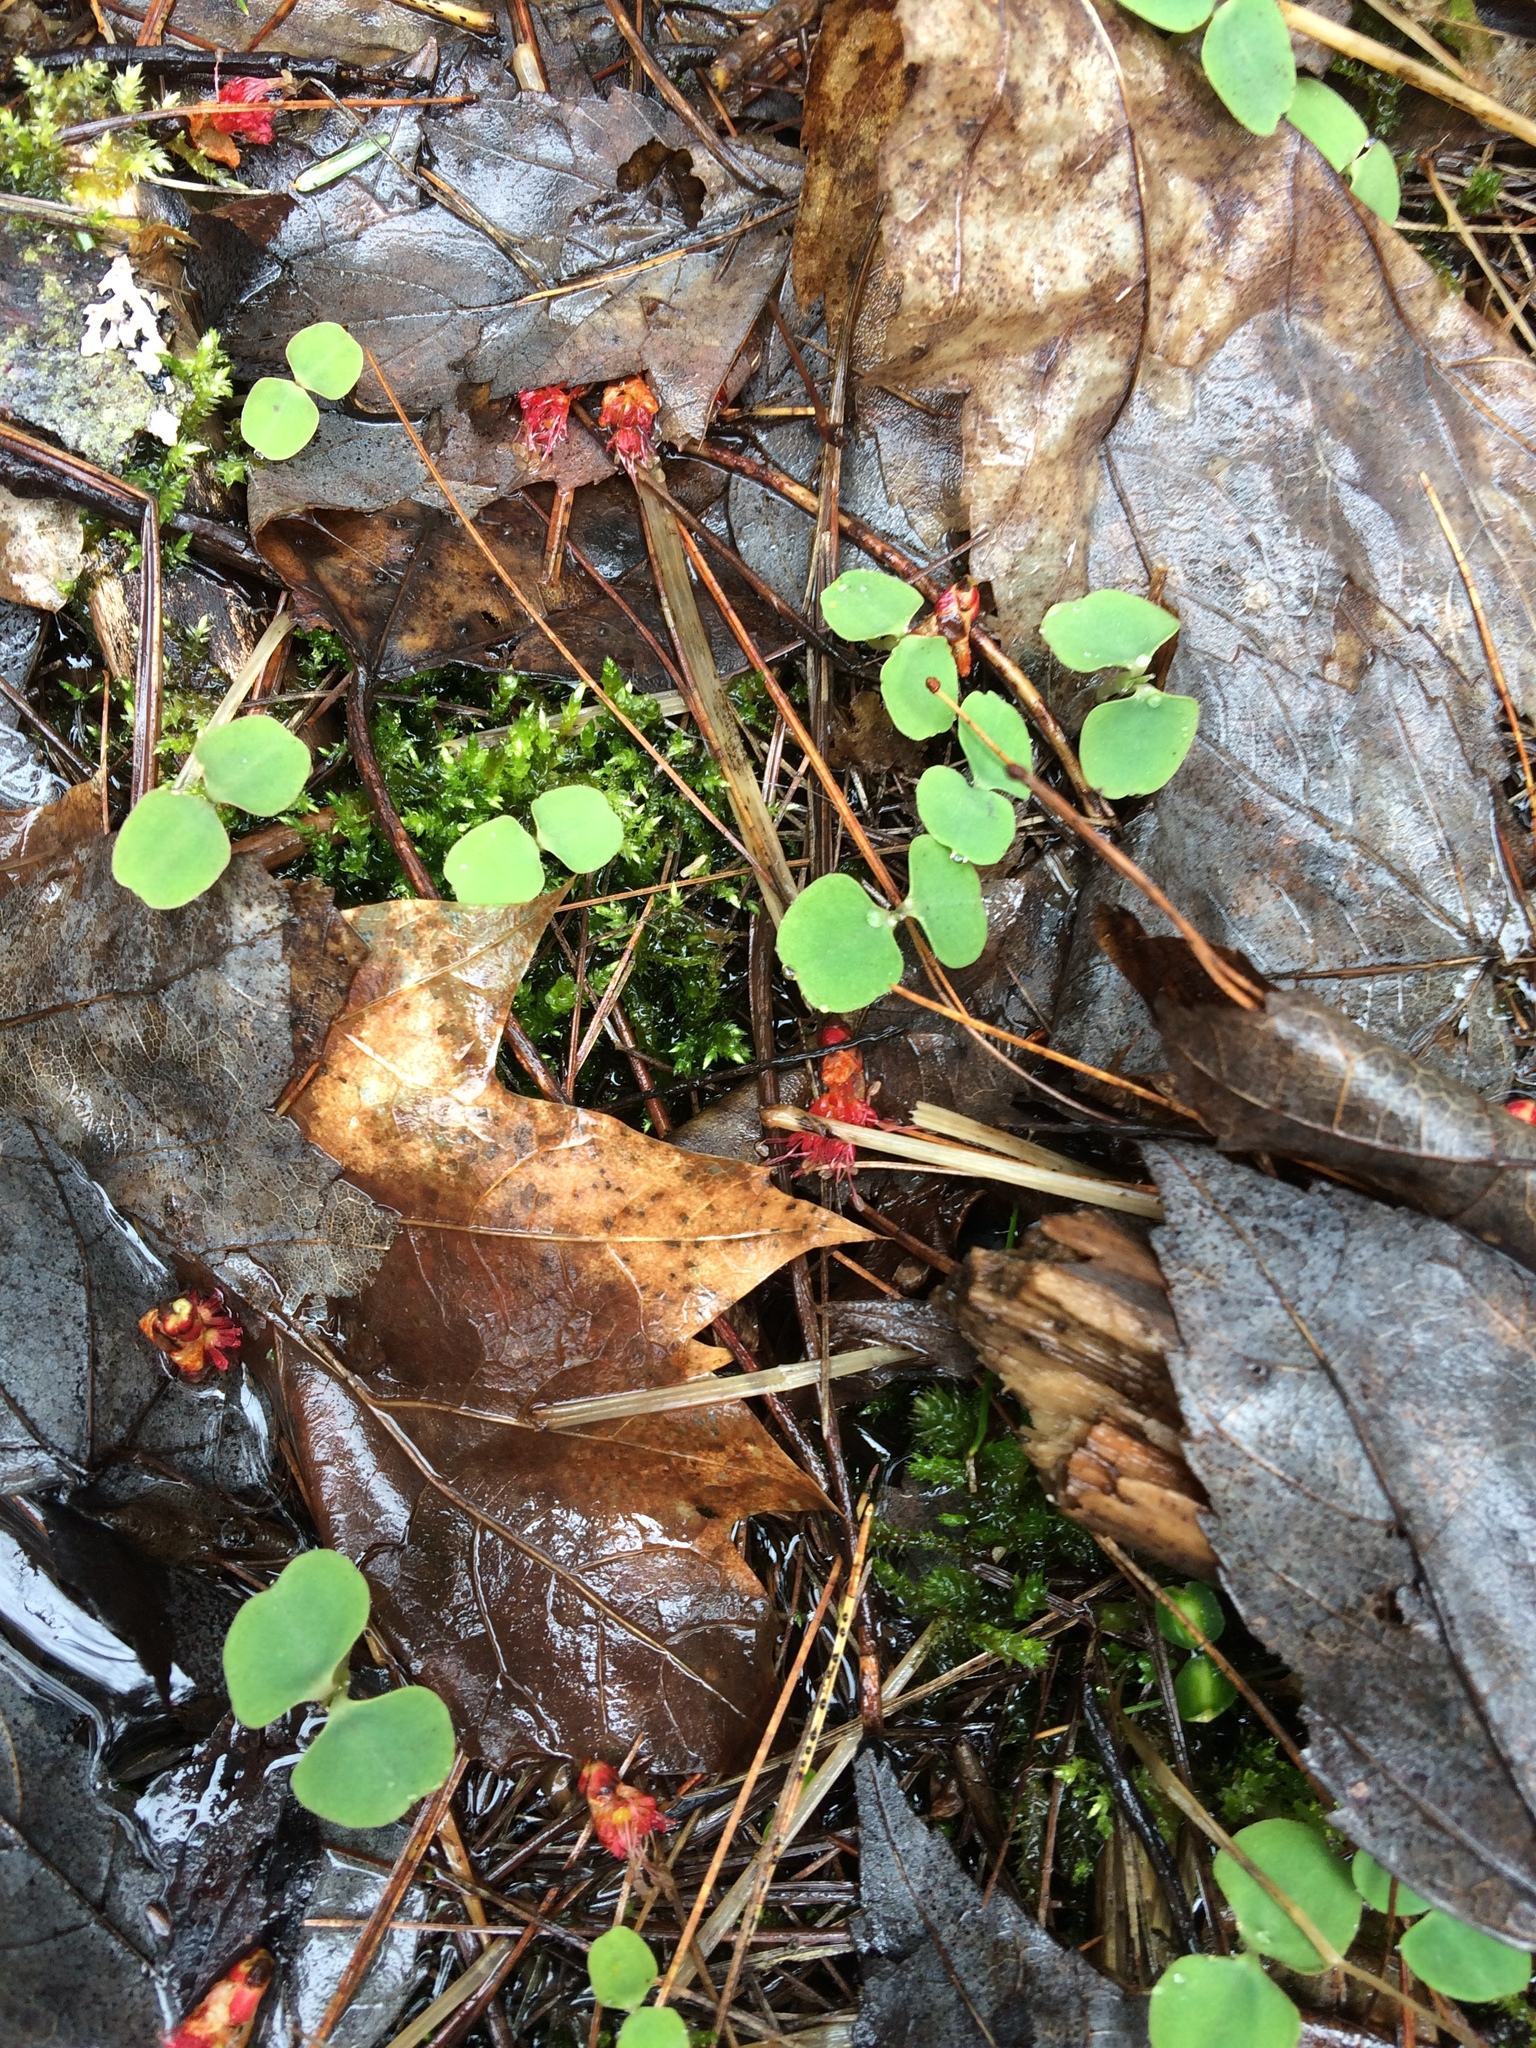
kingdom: Plantae
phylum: Tracheophyta
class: Magnoliopsida
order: Ericales
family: Balsaminaceae
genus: Impatiens
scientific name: Impatiens capensis
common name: Orange balsam
